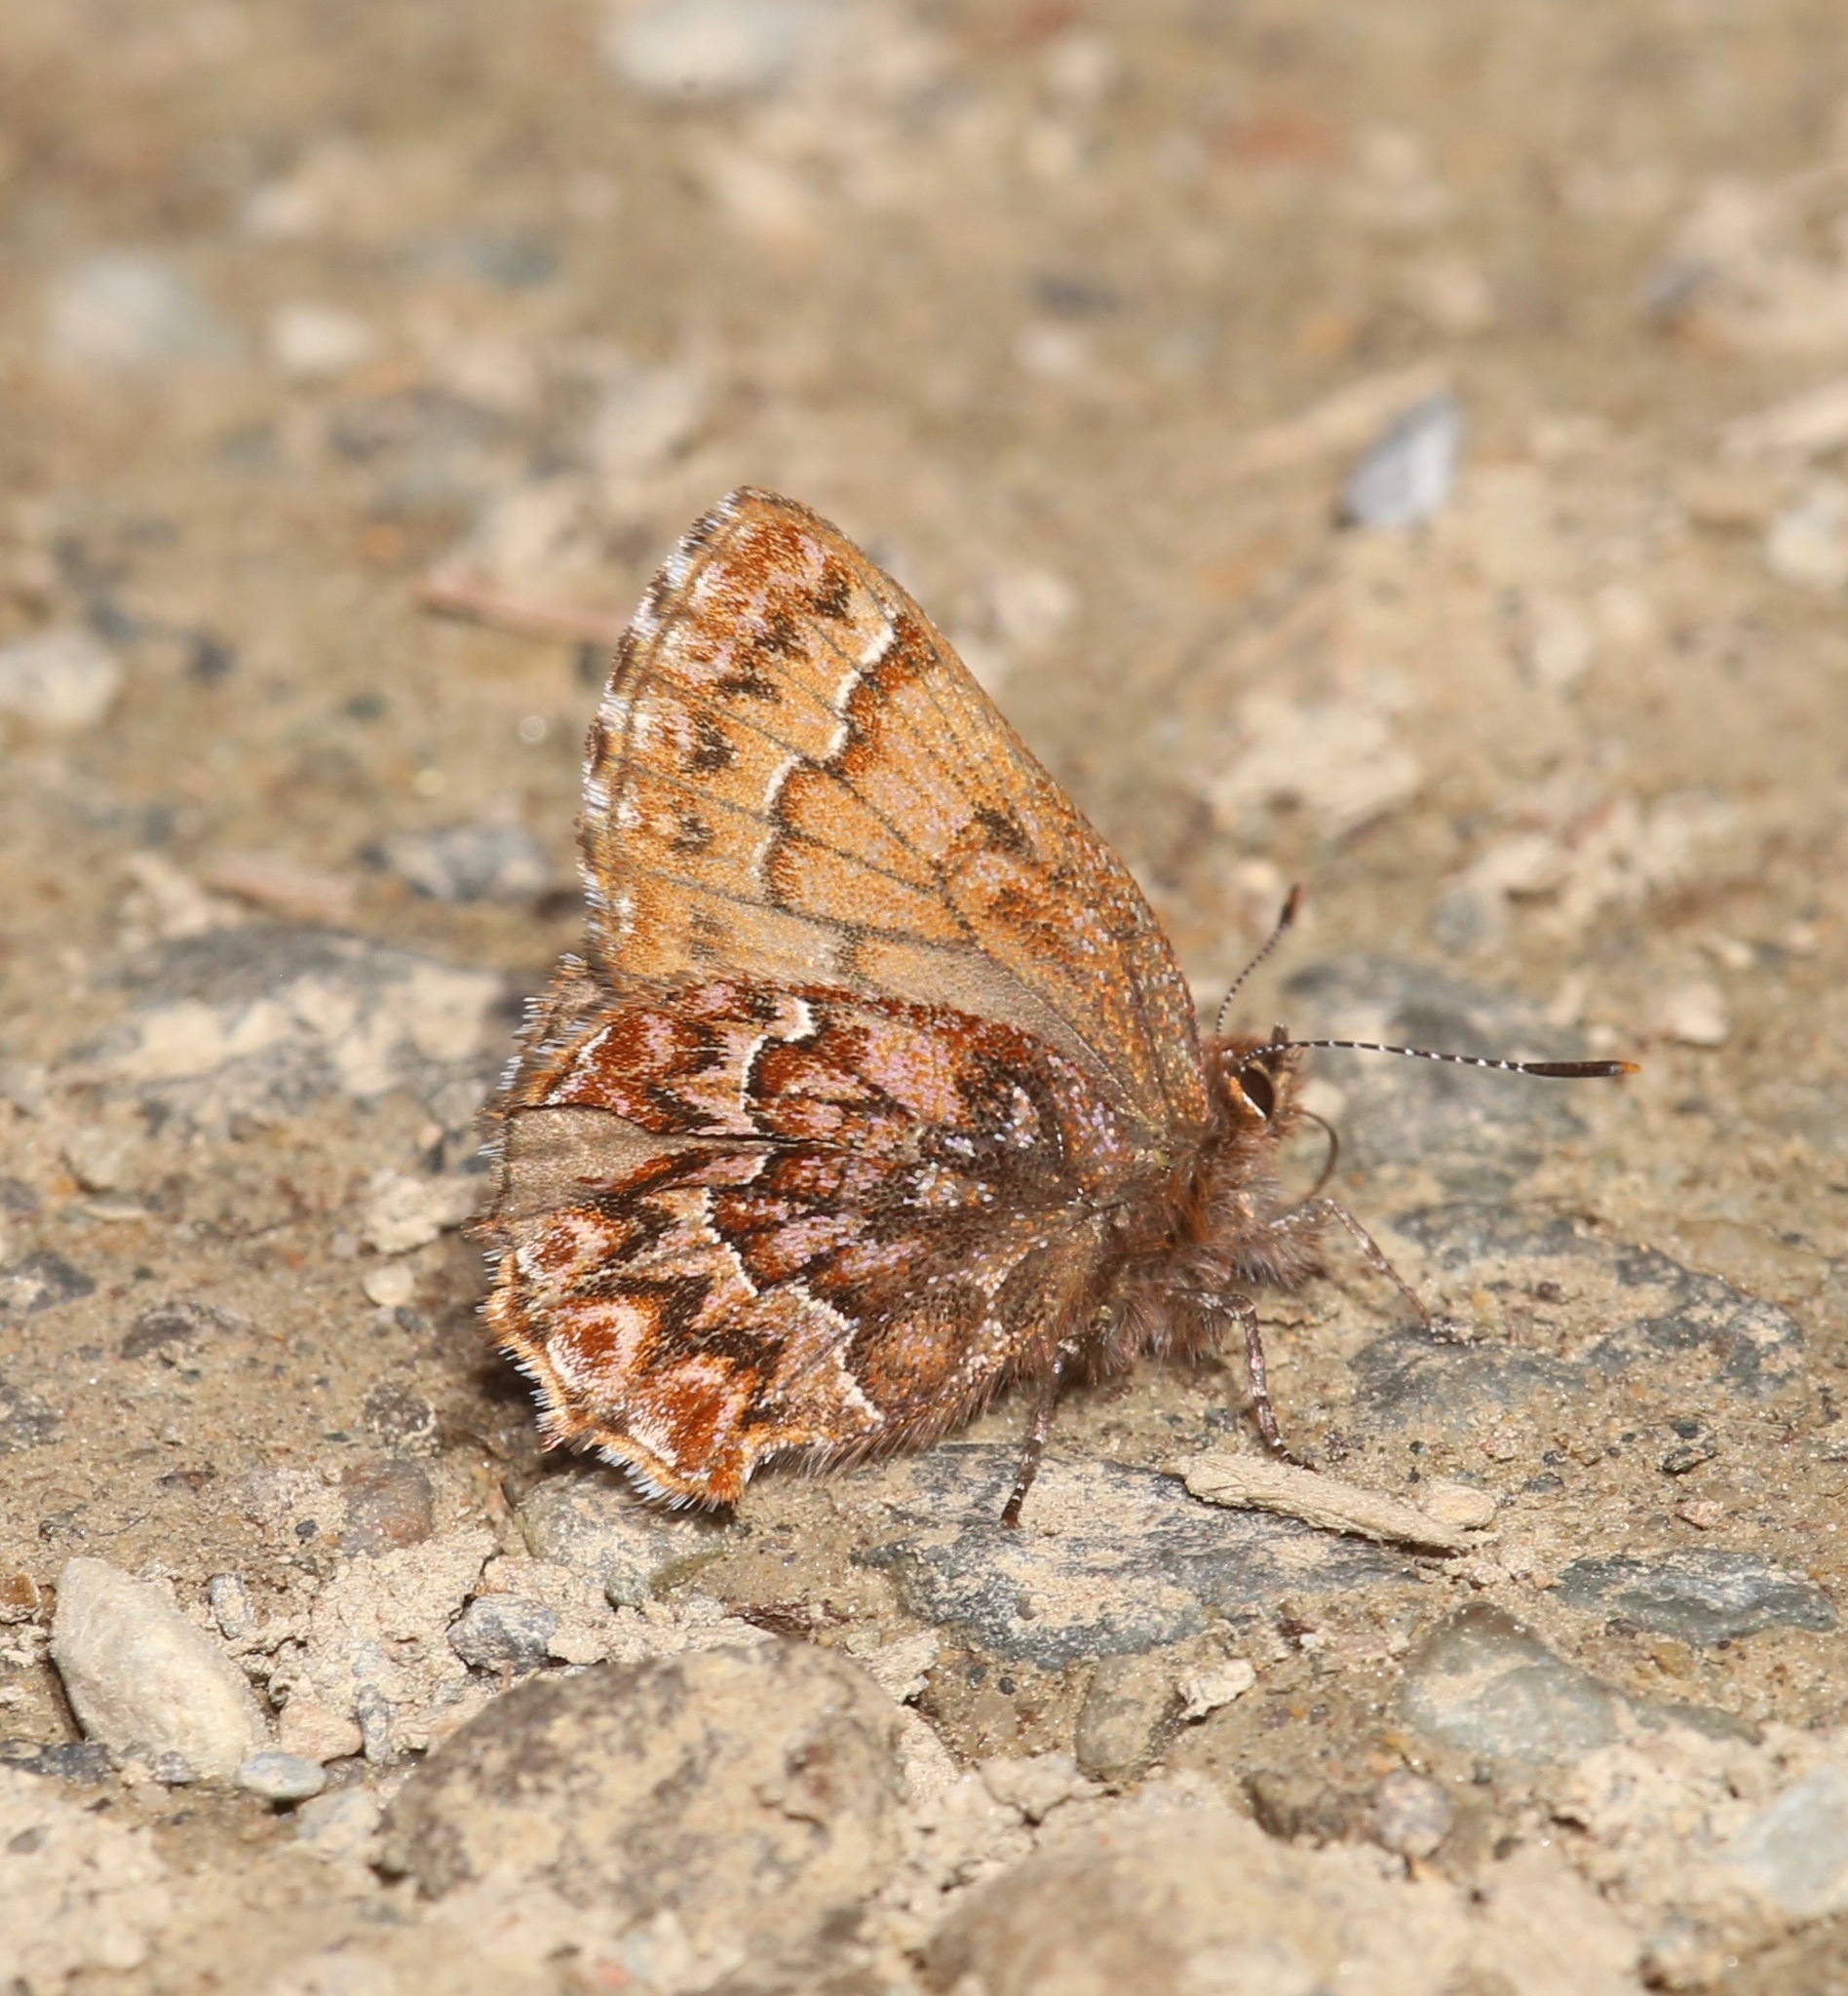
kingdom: Animalia
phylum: Arthropoda
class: Insecta
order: Lepidoptera
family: Lycaenidae
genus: Incisalia
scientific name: Incisalia eryphon
